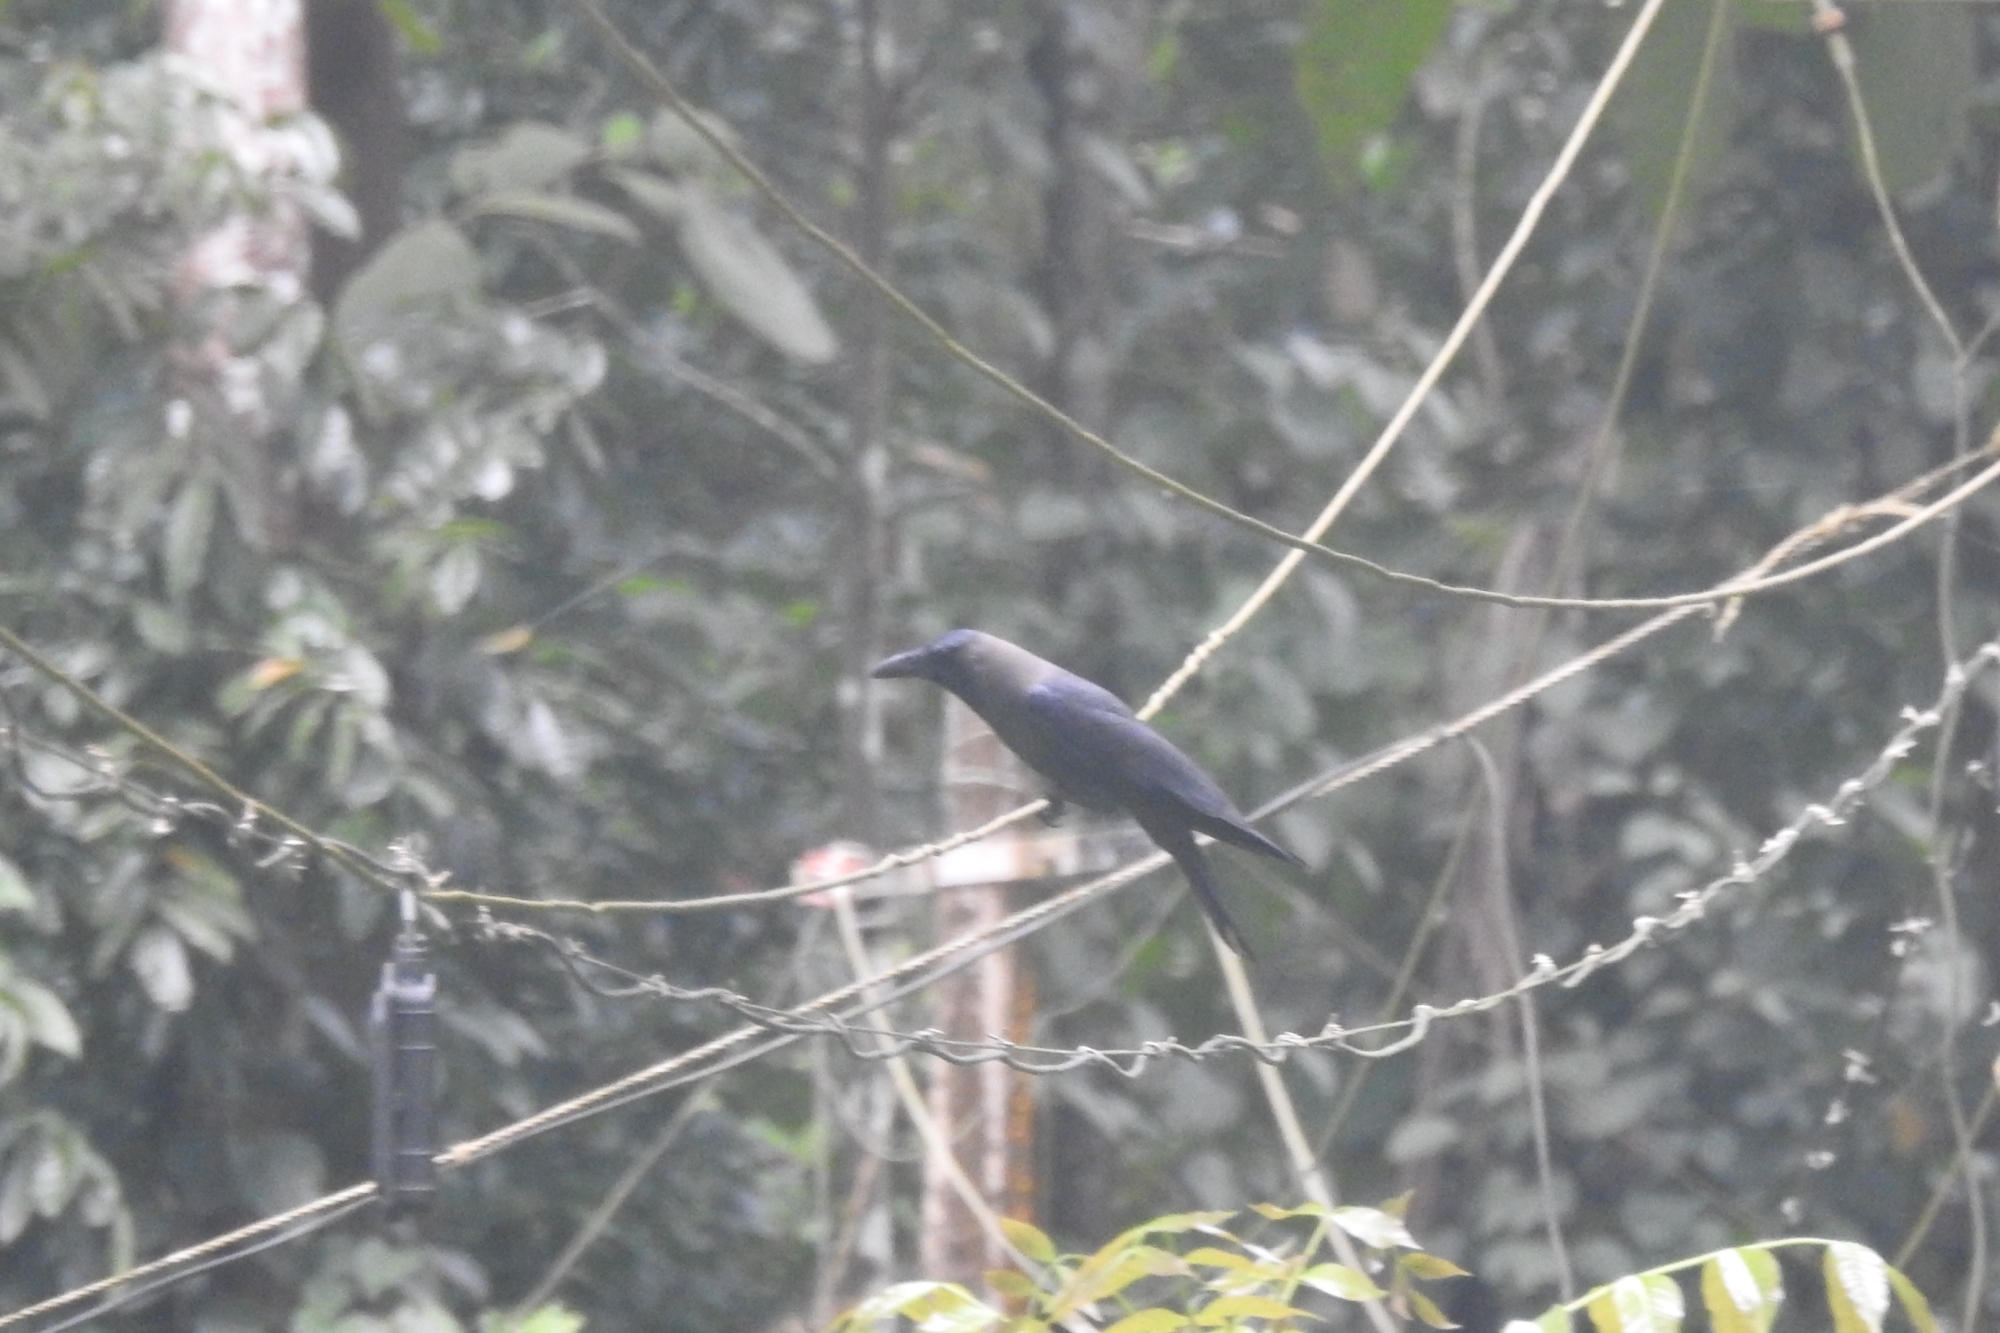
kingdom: Animalia
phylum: Chordata
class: Aves
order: Passeriformes
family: Corvidae
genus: Corvus
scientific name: Corvus splendens
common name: House crow
